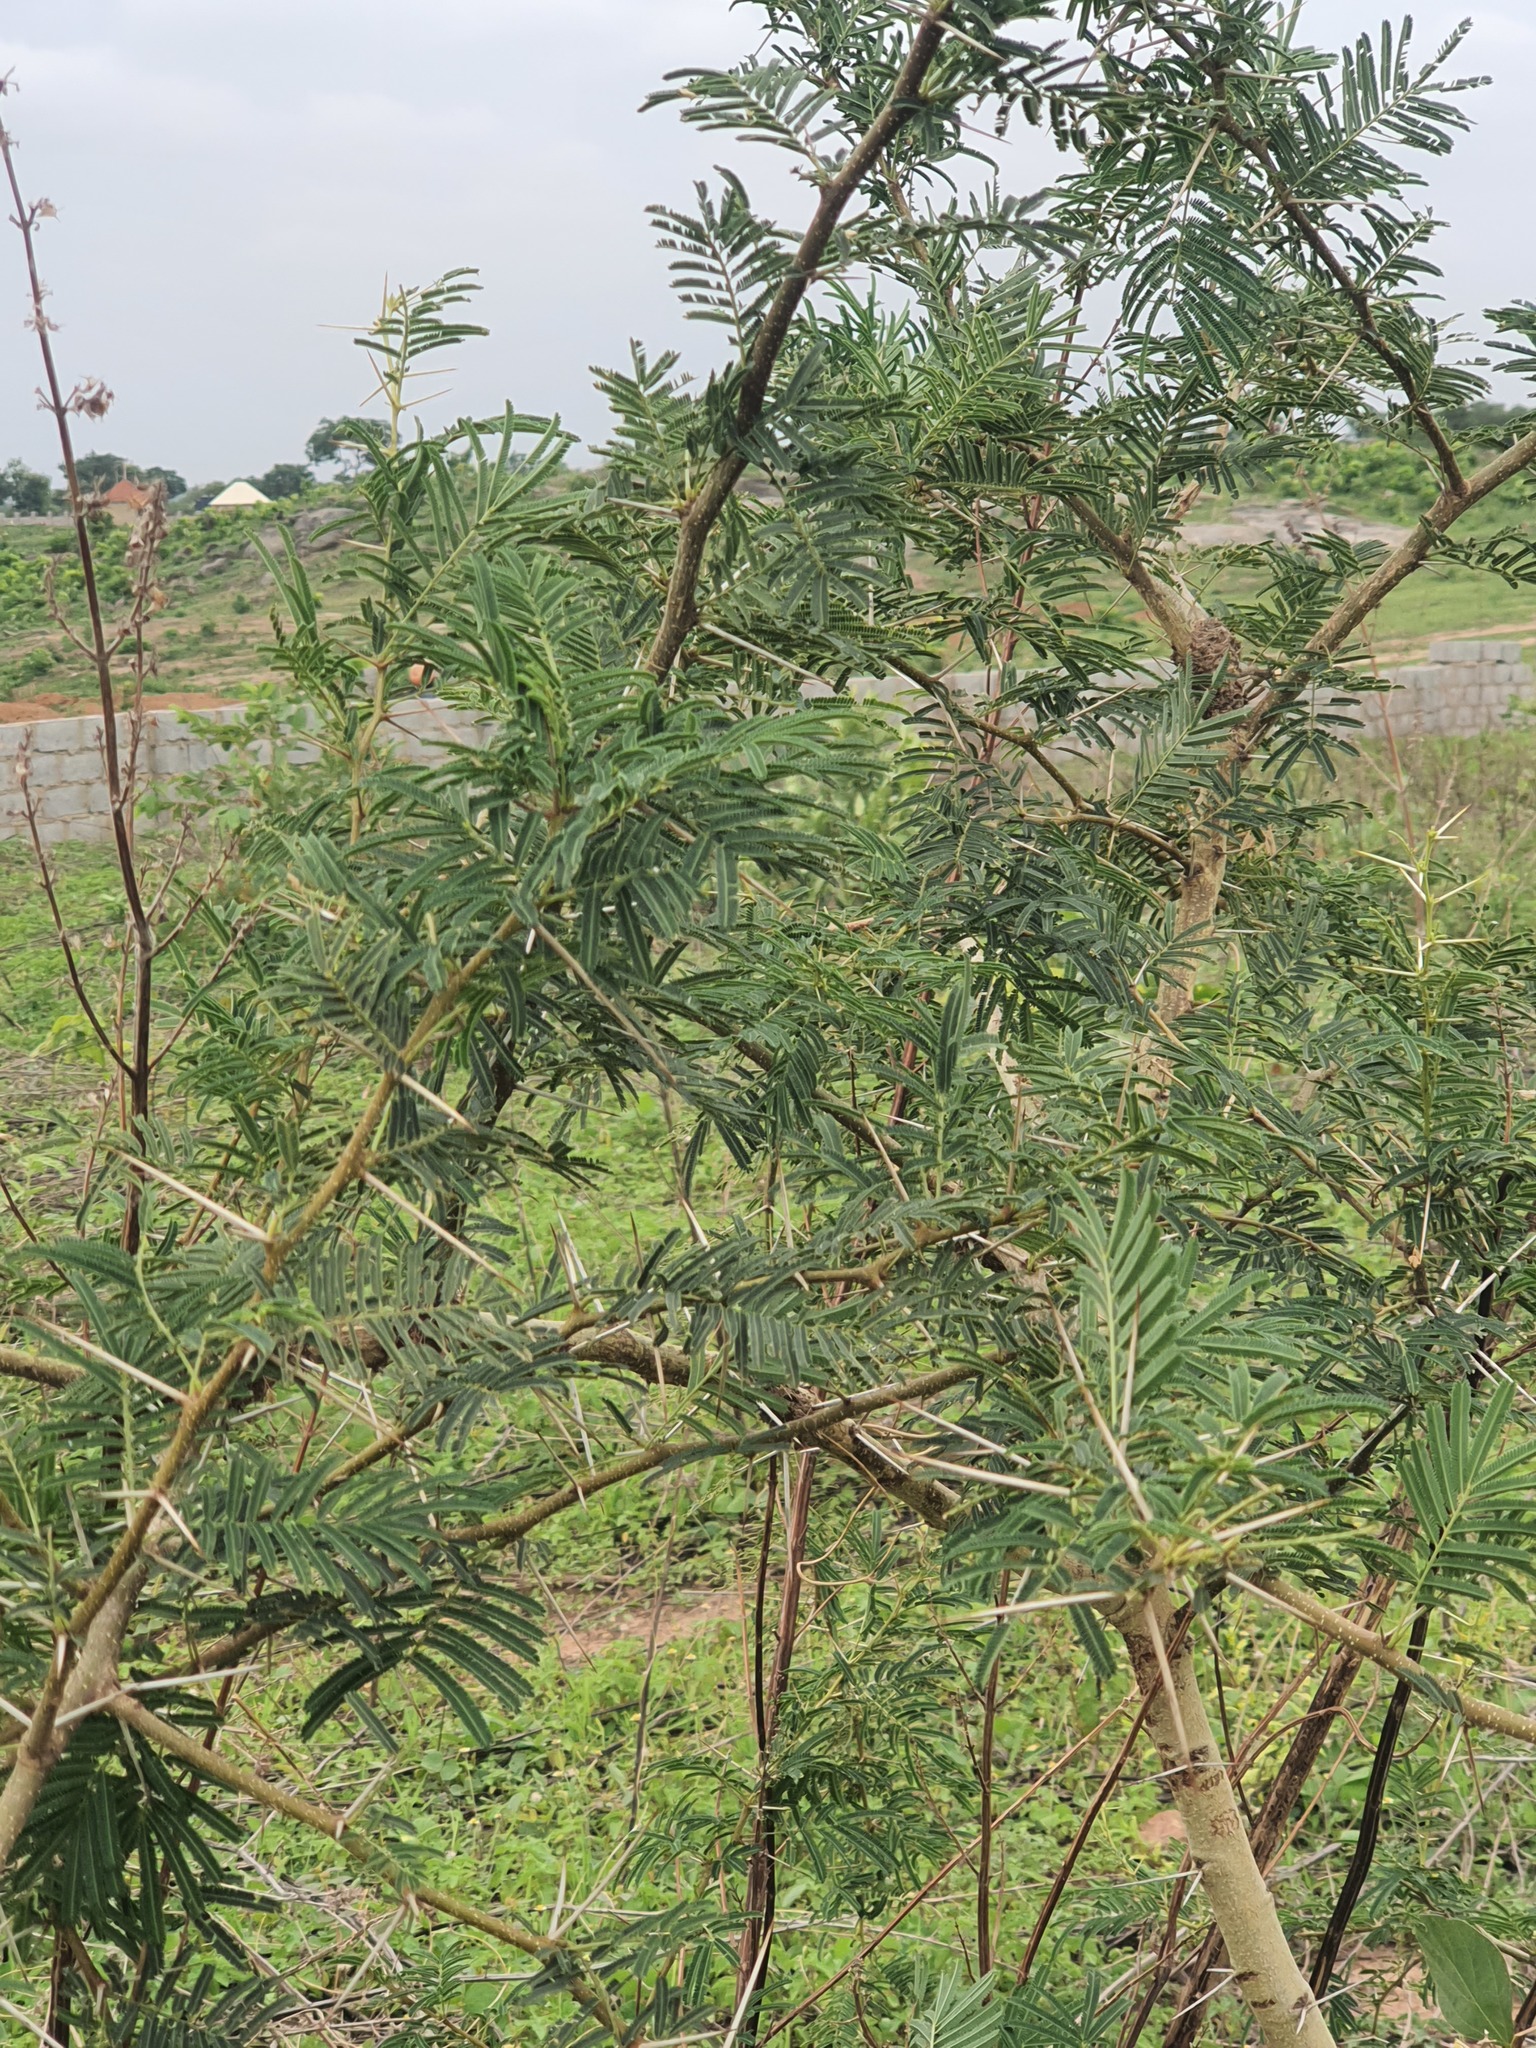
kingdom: Plantae
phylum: Tracheophyta
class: Magnoliopsida
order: Fabales
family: Fabaceae
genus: Vachellia
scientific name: Vachellia karroo
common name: Sweet thorn
